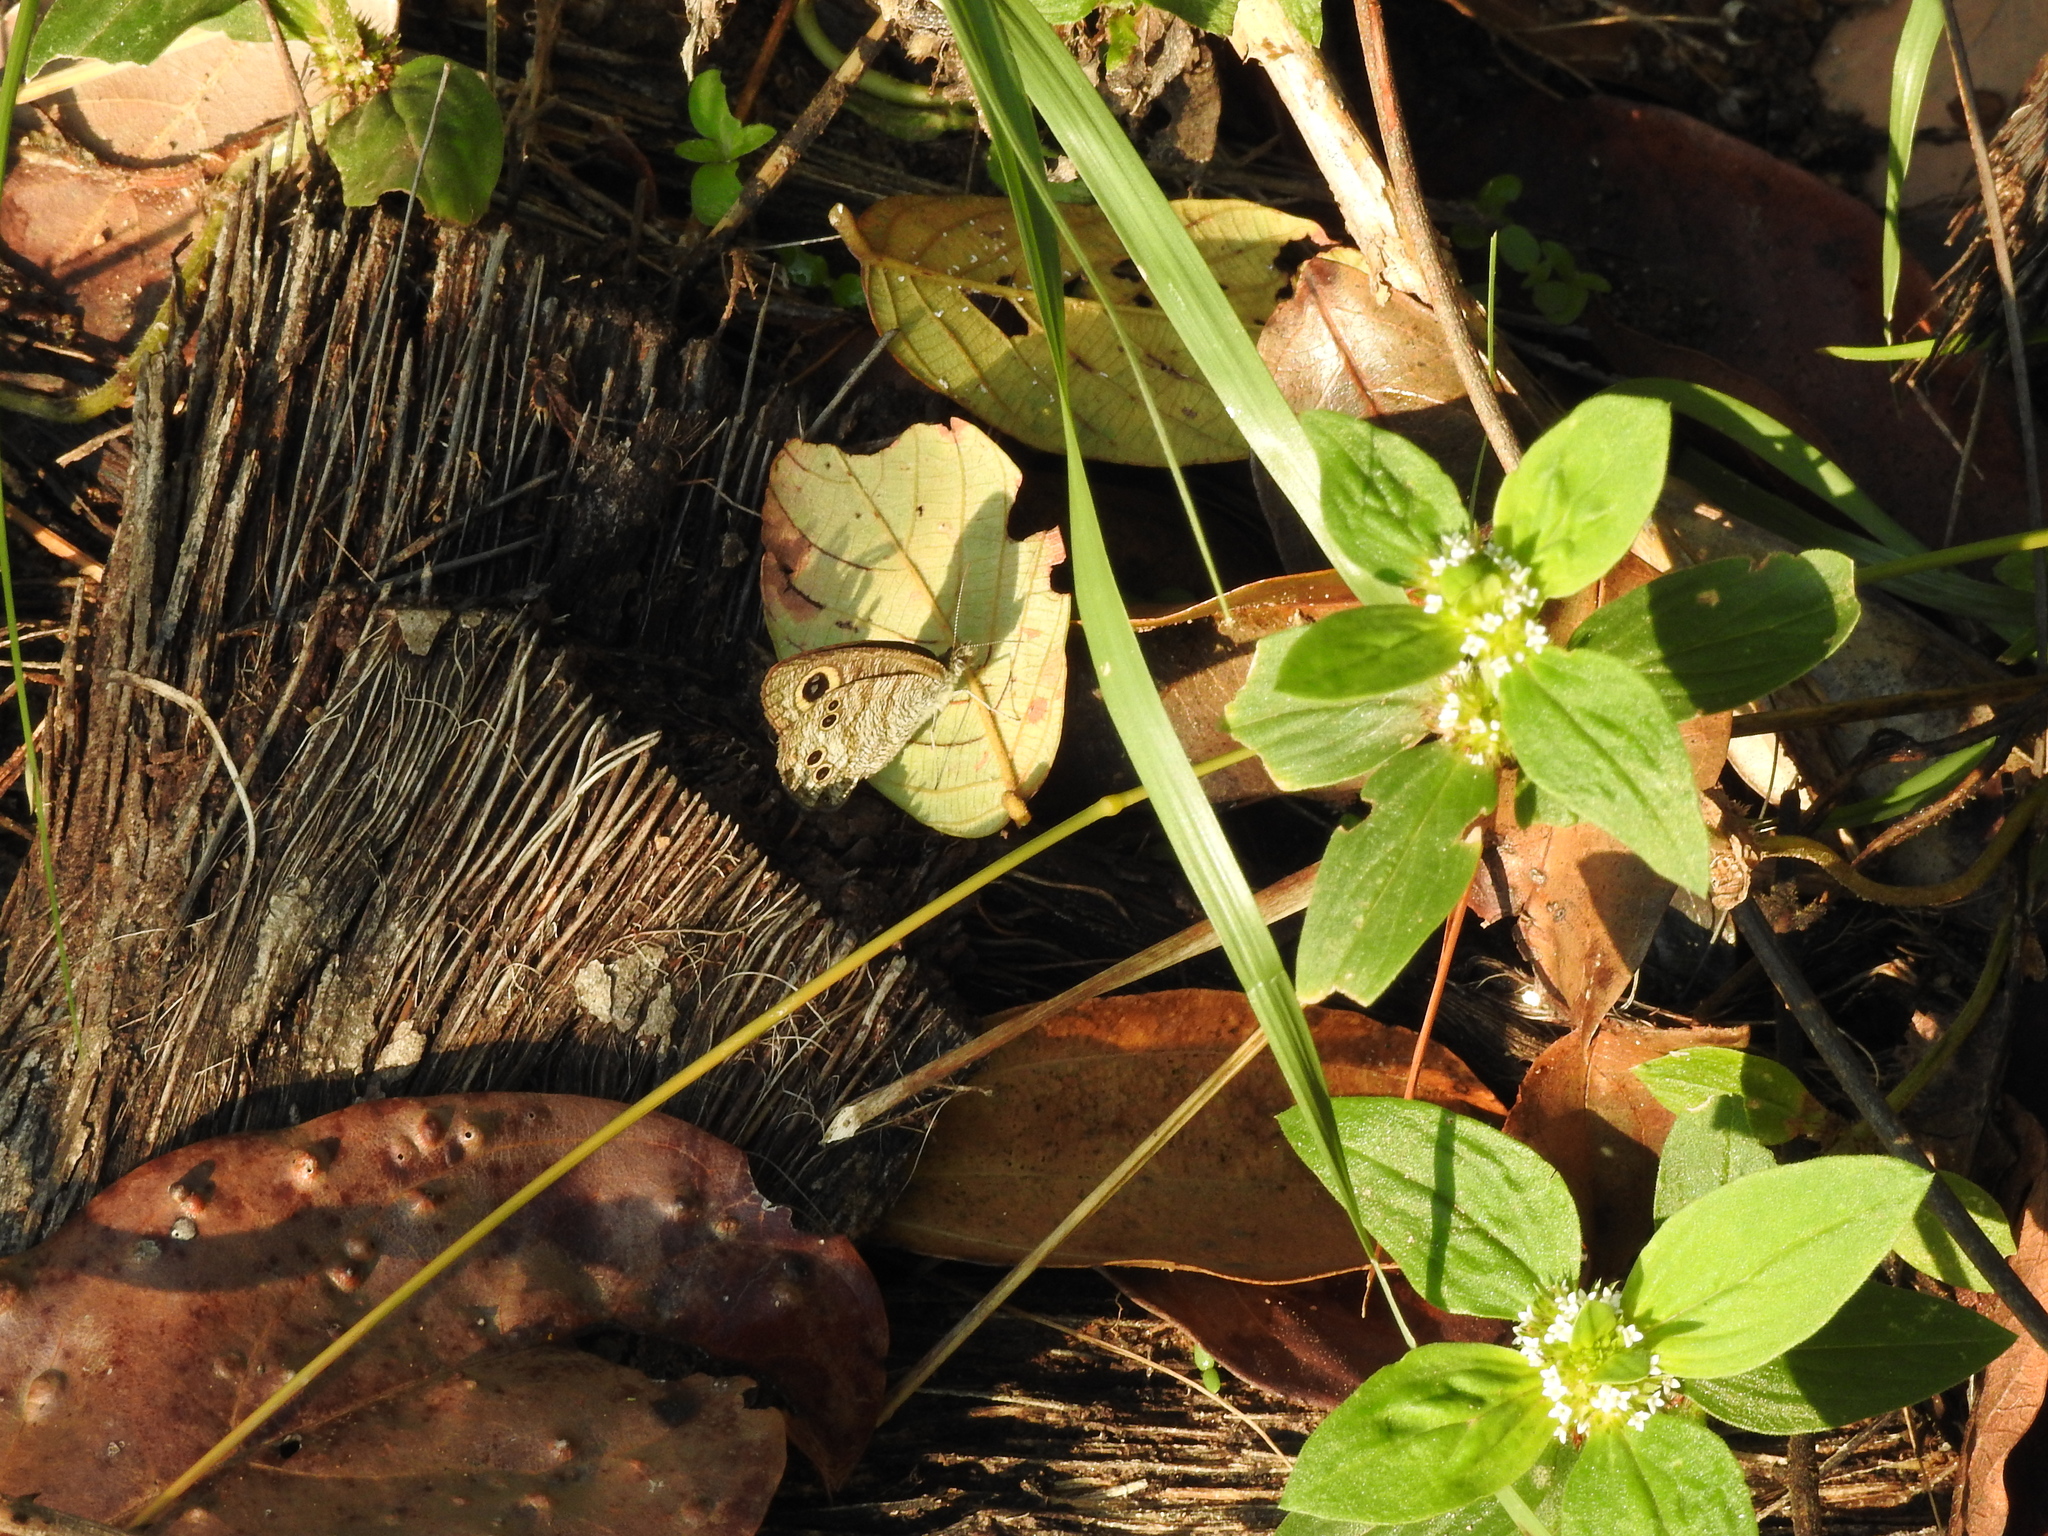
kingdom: Animalia
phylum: Arthropoda
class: Insecta
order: Lepidoptera
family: Nymphalidae
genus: Ypthima
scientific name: Ypthima baldus
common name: Common five-ring
